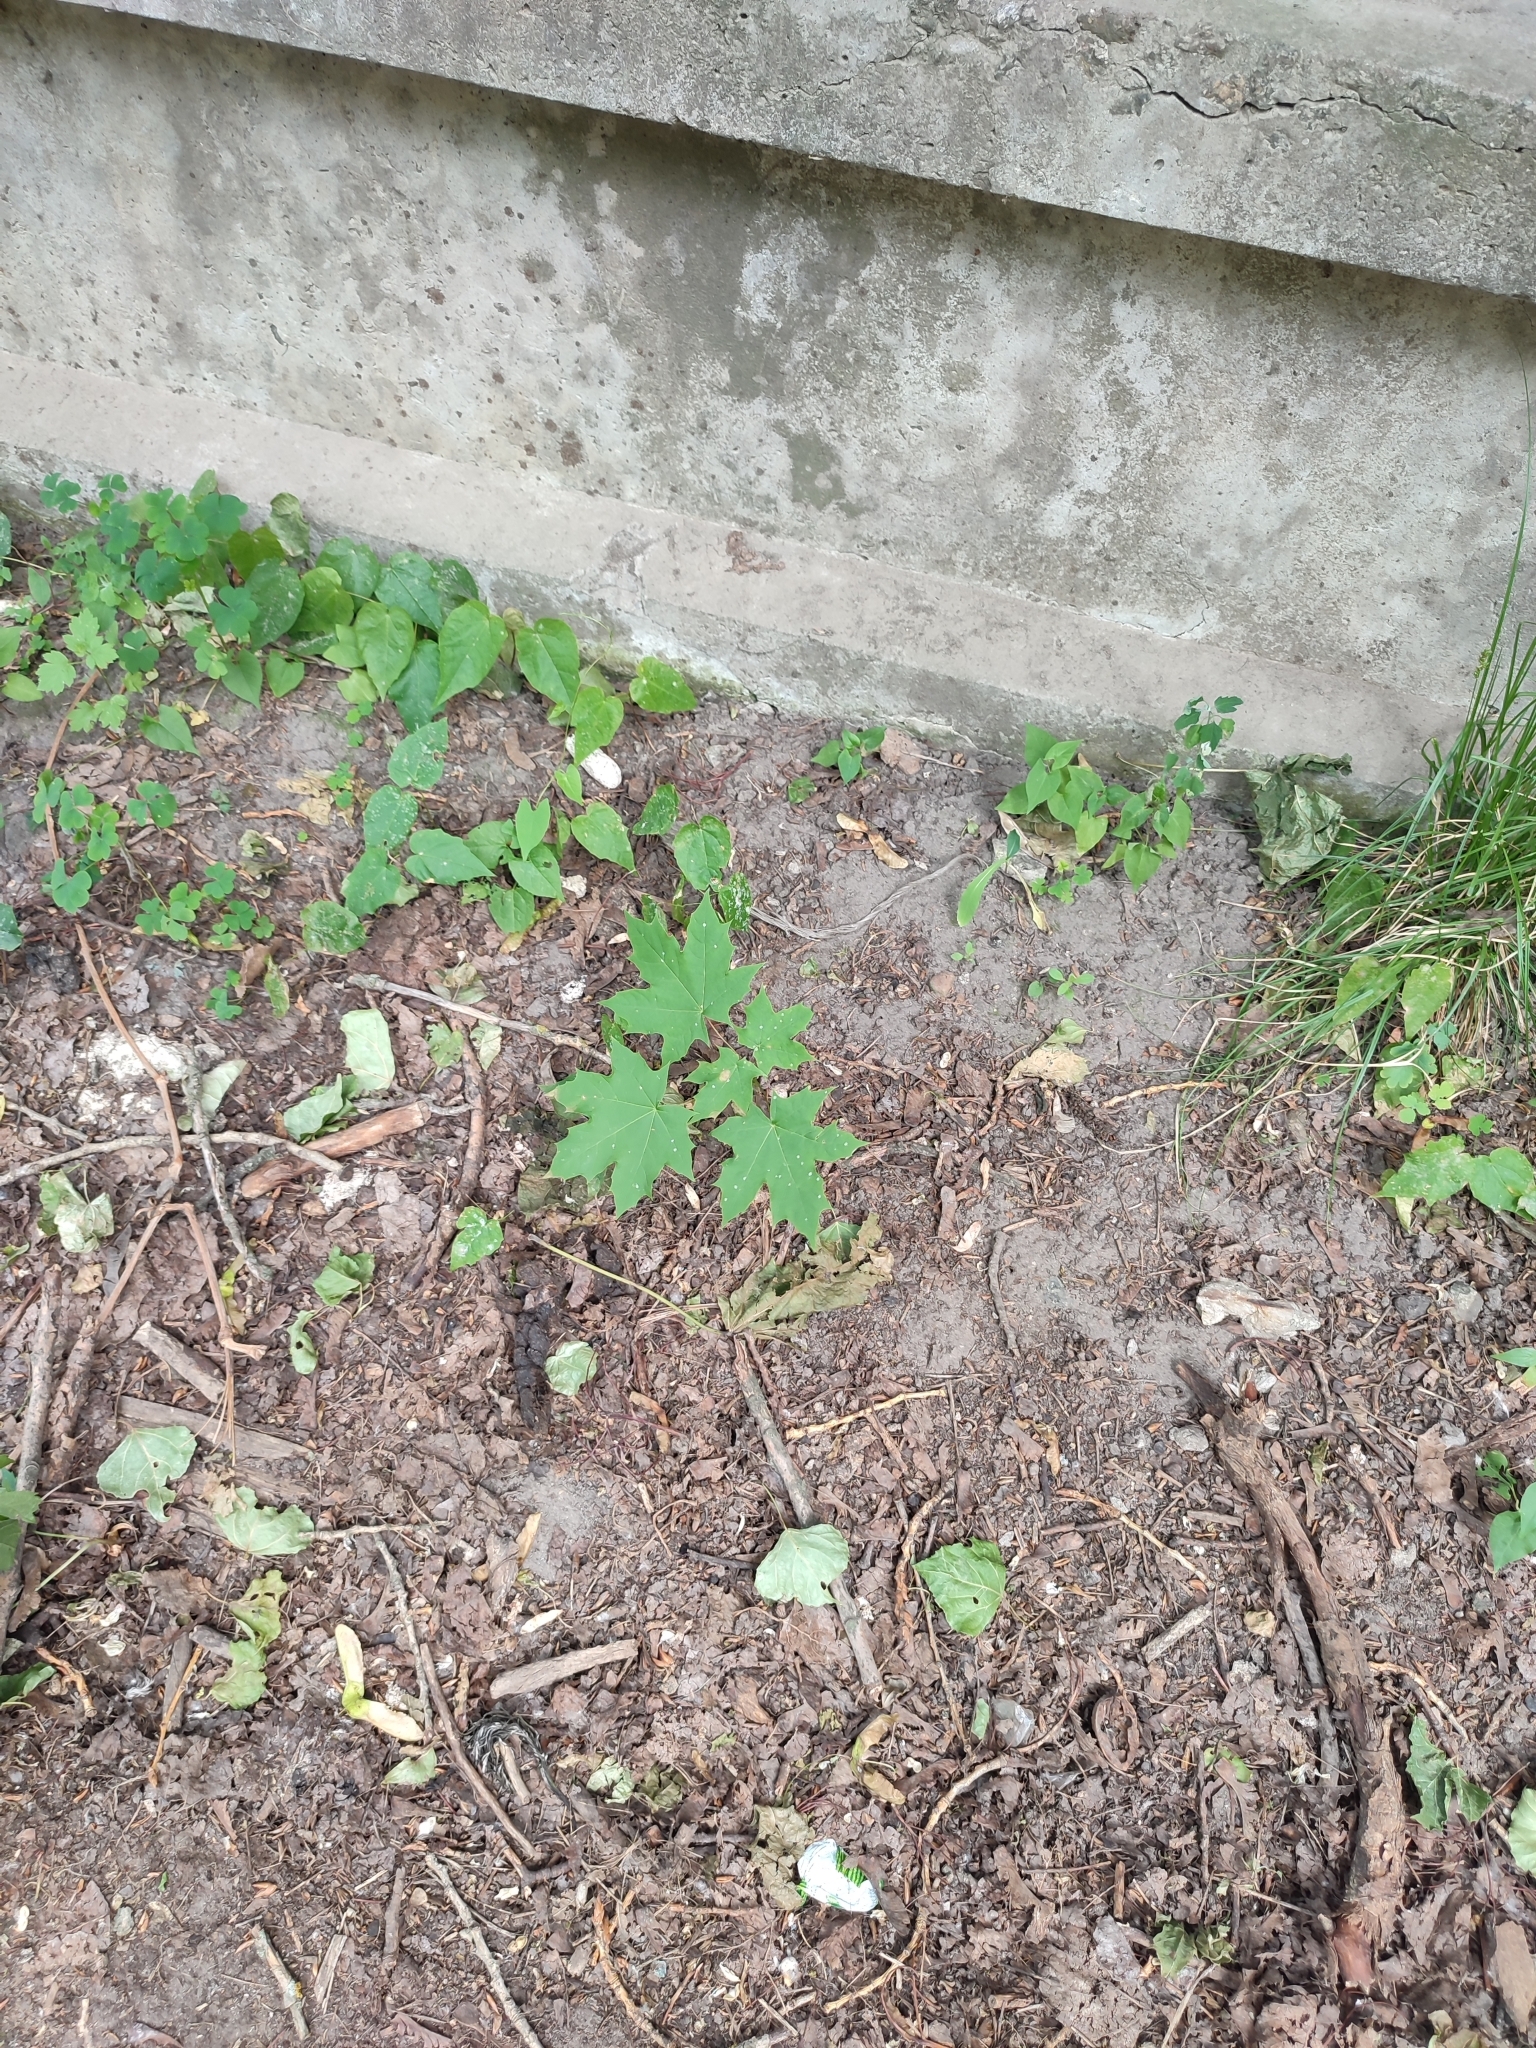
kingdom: Plantae
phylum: Tracheophyta
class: Magnoliopsida
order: Sapindales
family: Sapindaceae
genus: Acer
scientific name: Acer platanoides
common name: Norway maple
